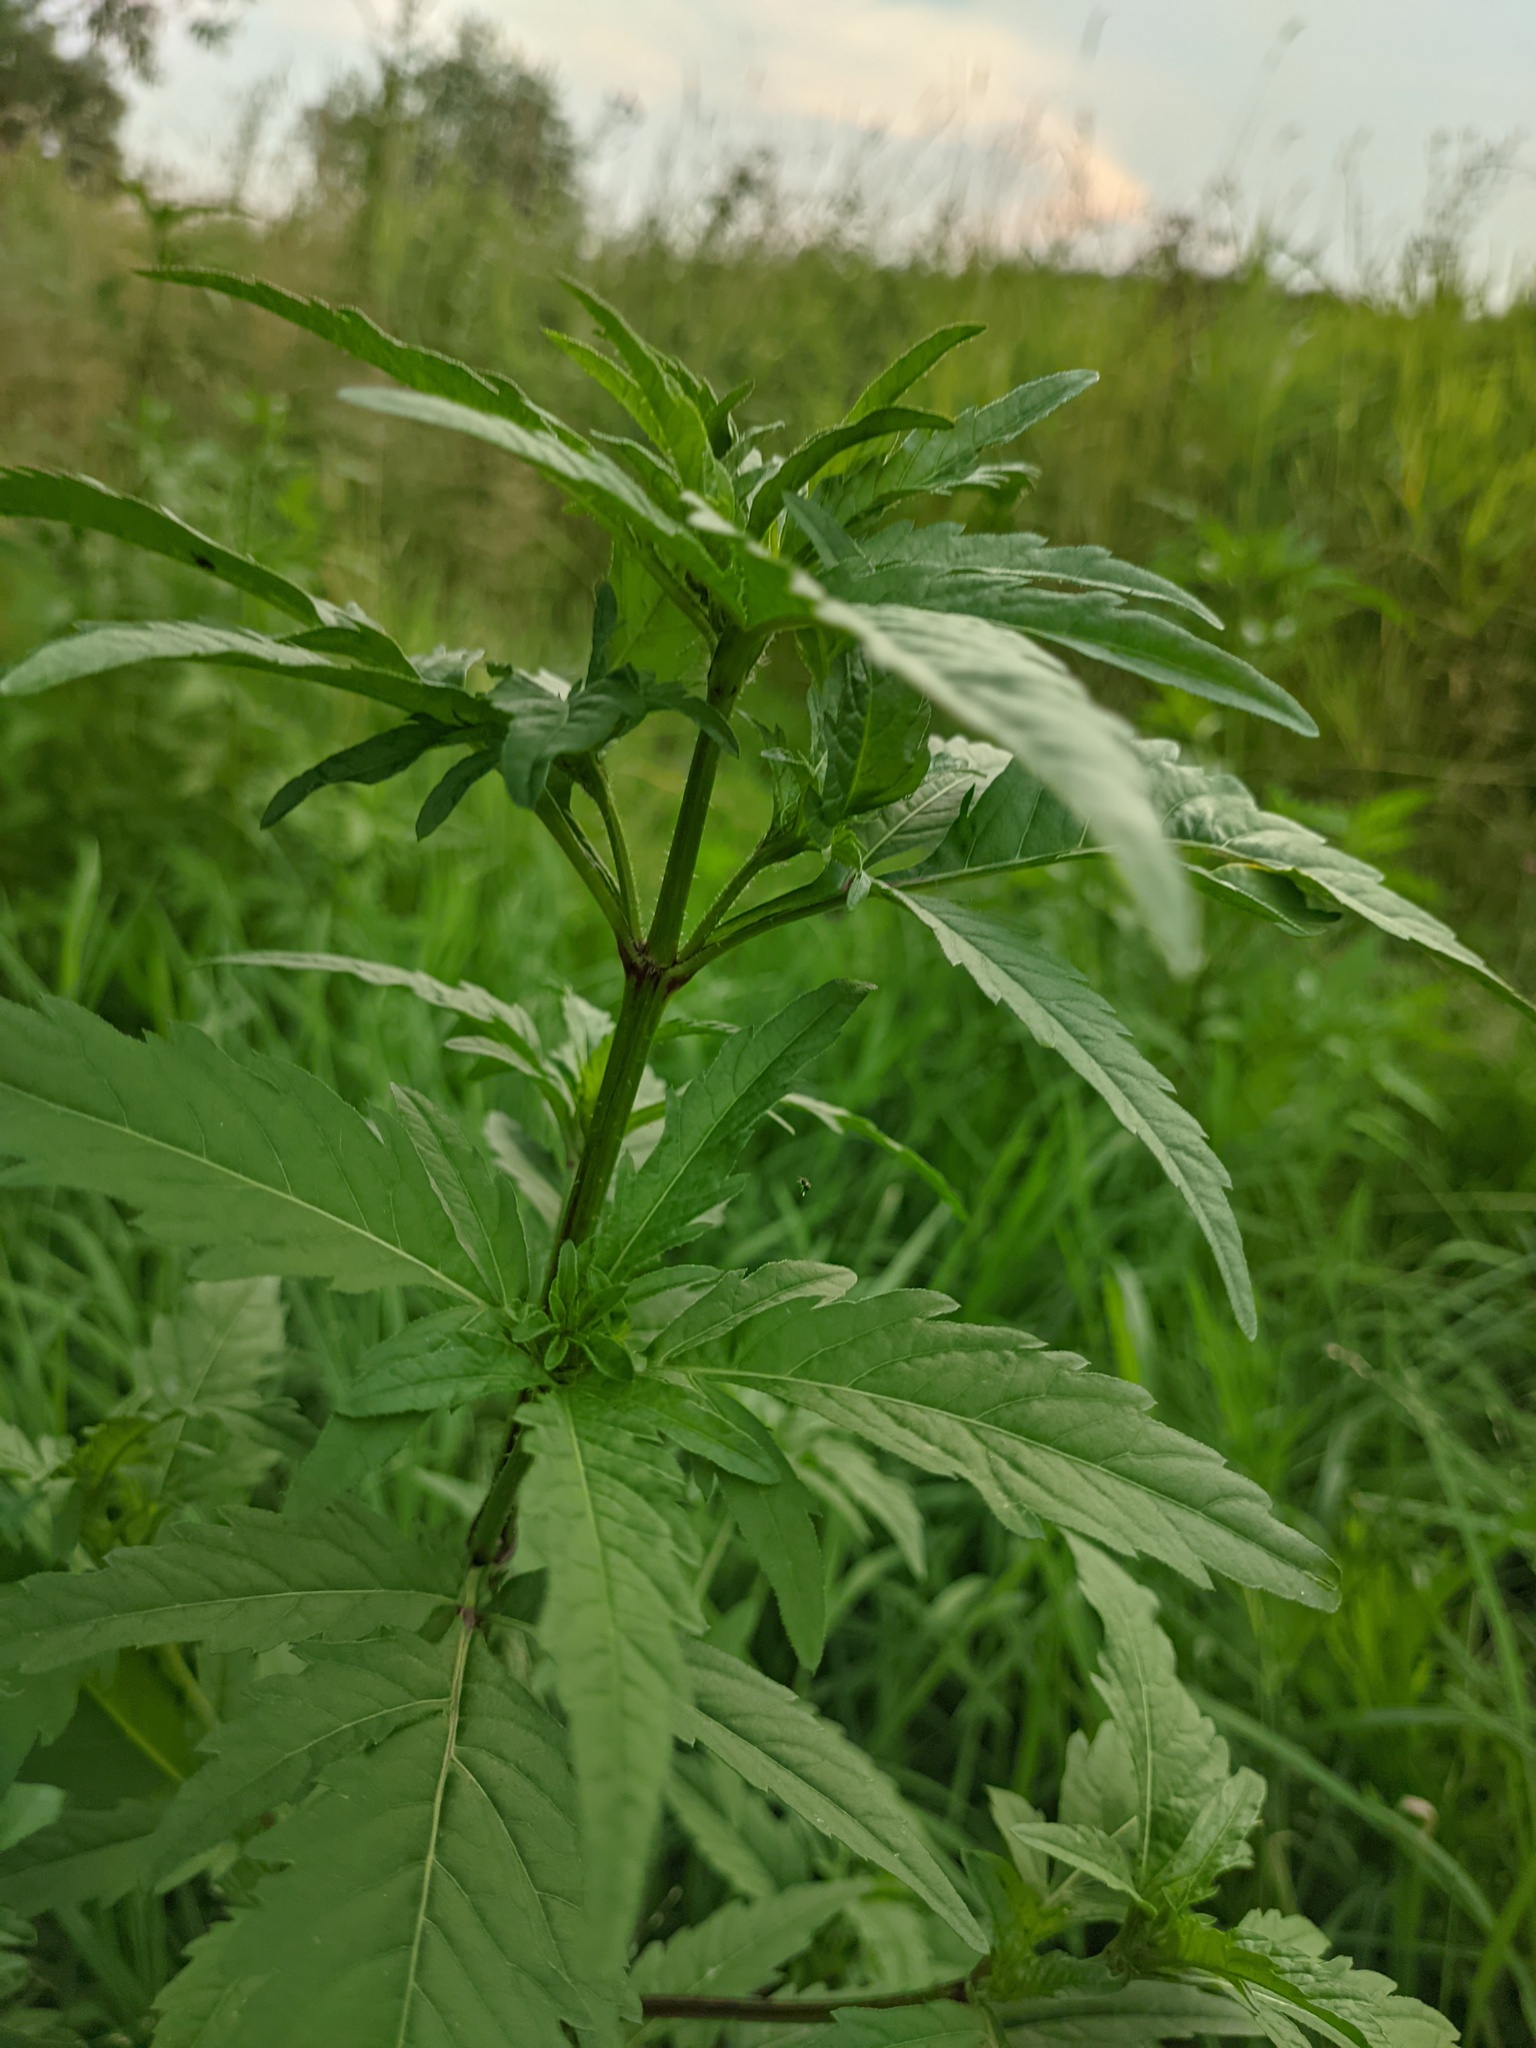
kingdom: Plantae
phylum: Tracheophyta
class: Magnoliopsida
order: Asterales
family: Asteraceae
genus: Bidens
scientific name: Bidens tripartita
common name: Trifid bur-marigold
